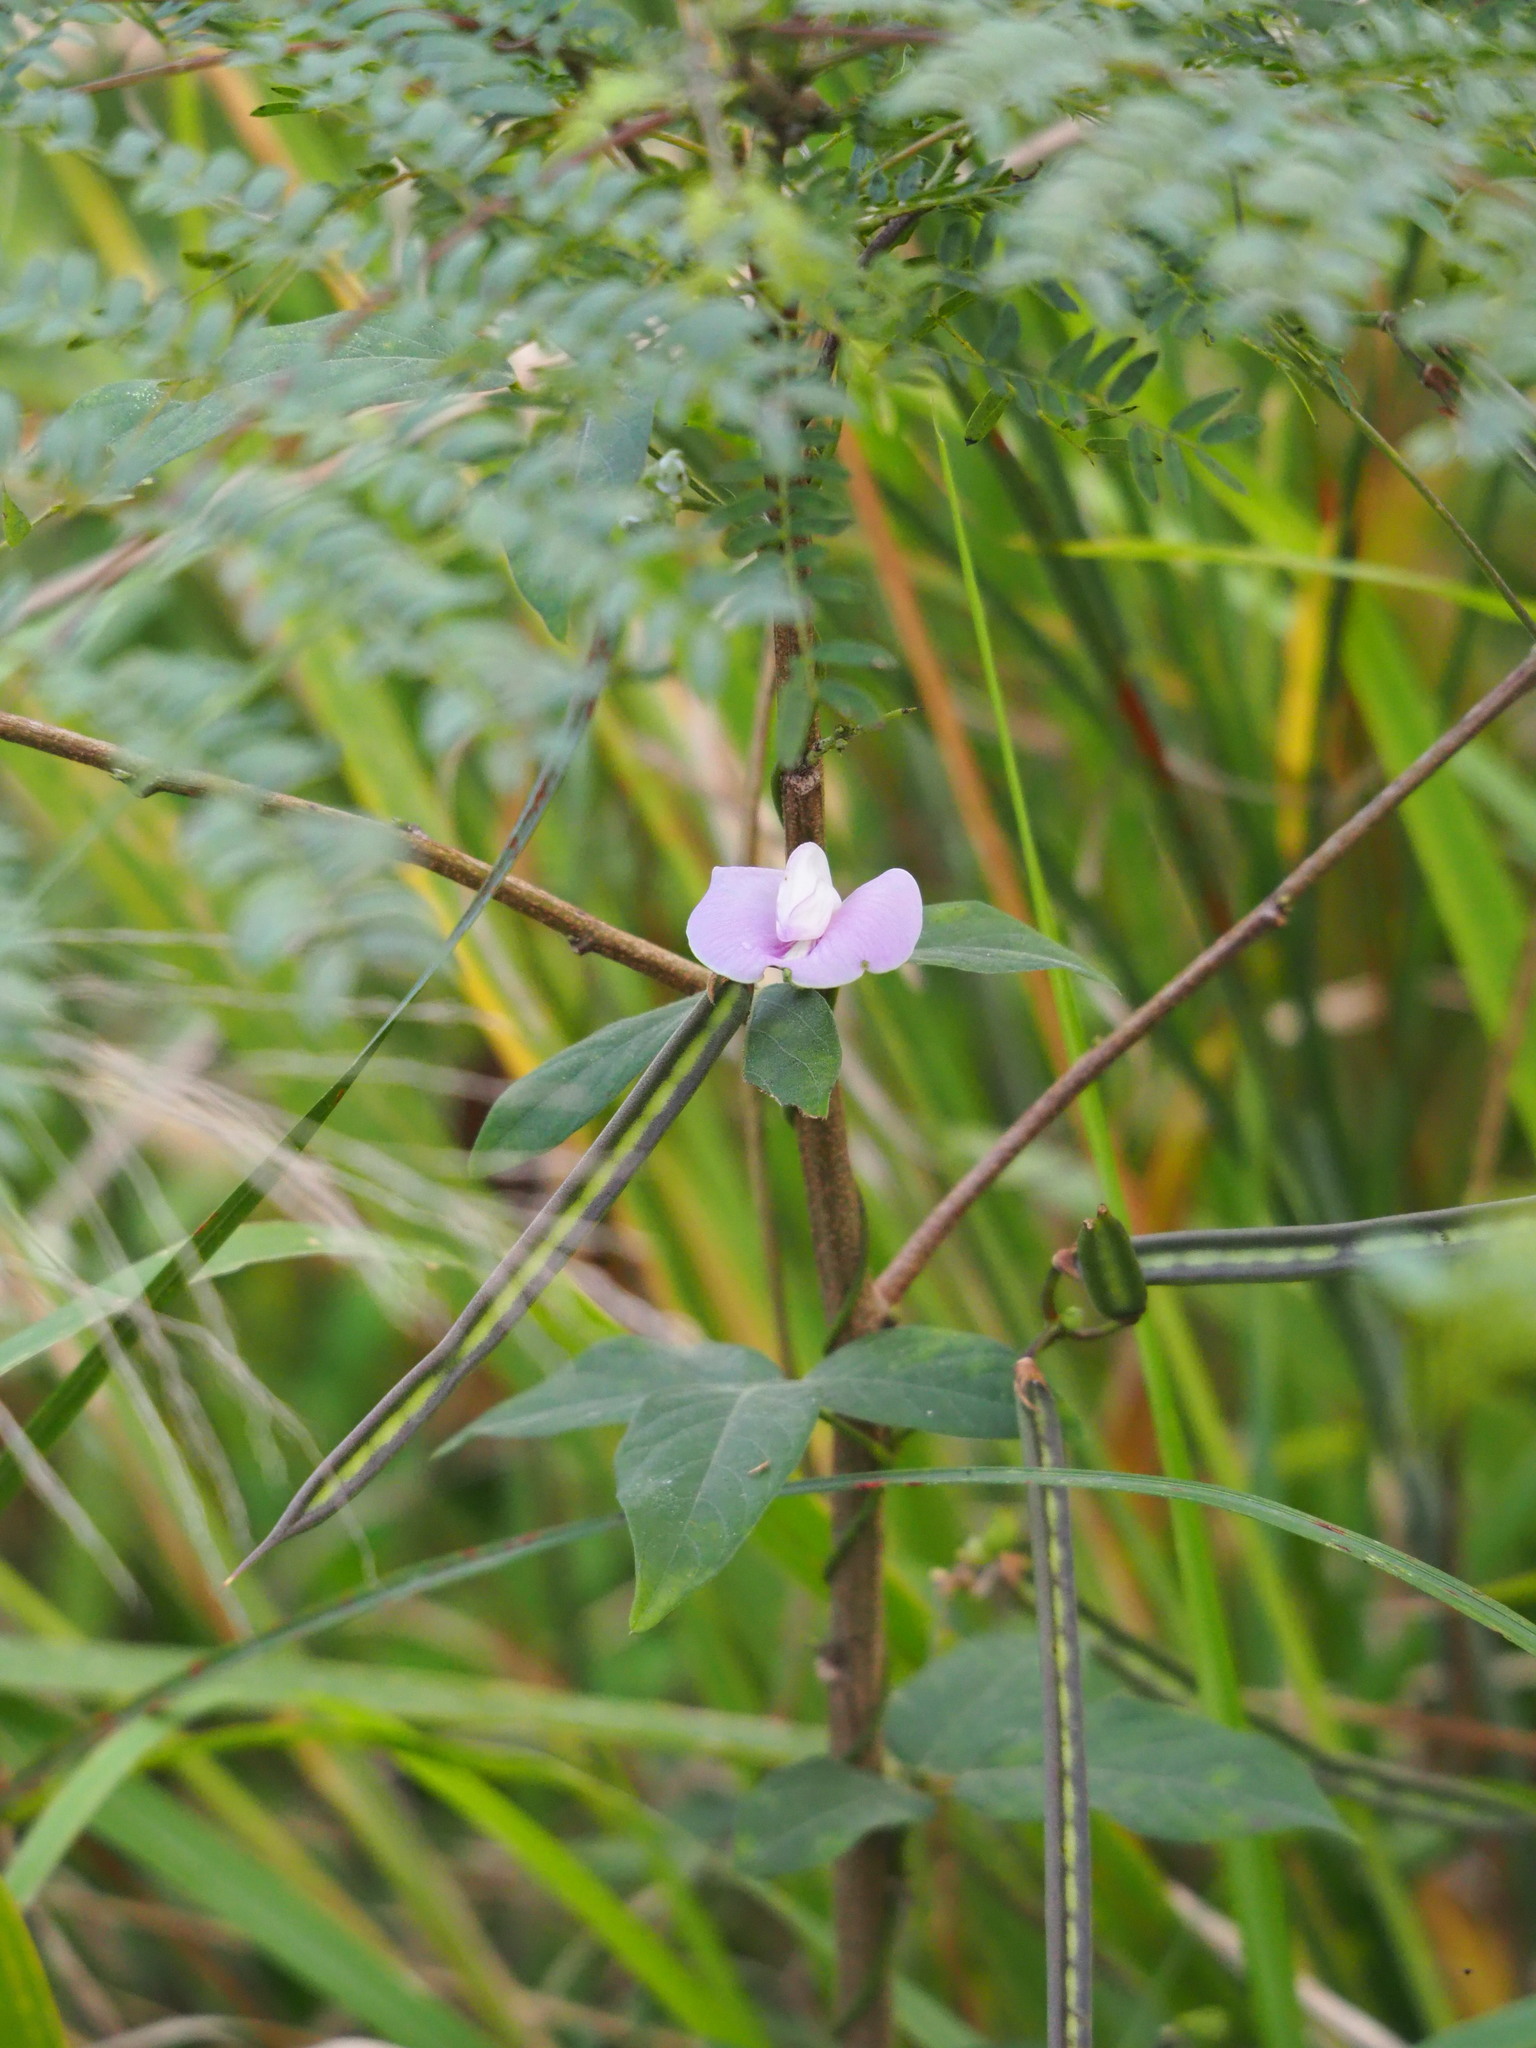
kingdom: Plantae
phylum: Tracheophyta
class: Magnoliopsida
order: Fabales
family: Fabaceae
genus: Centrosema
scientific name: Centrosema pubescens
